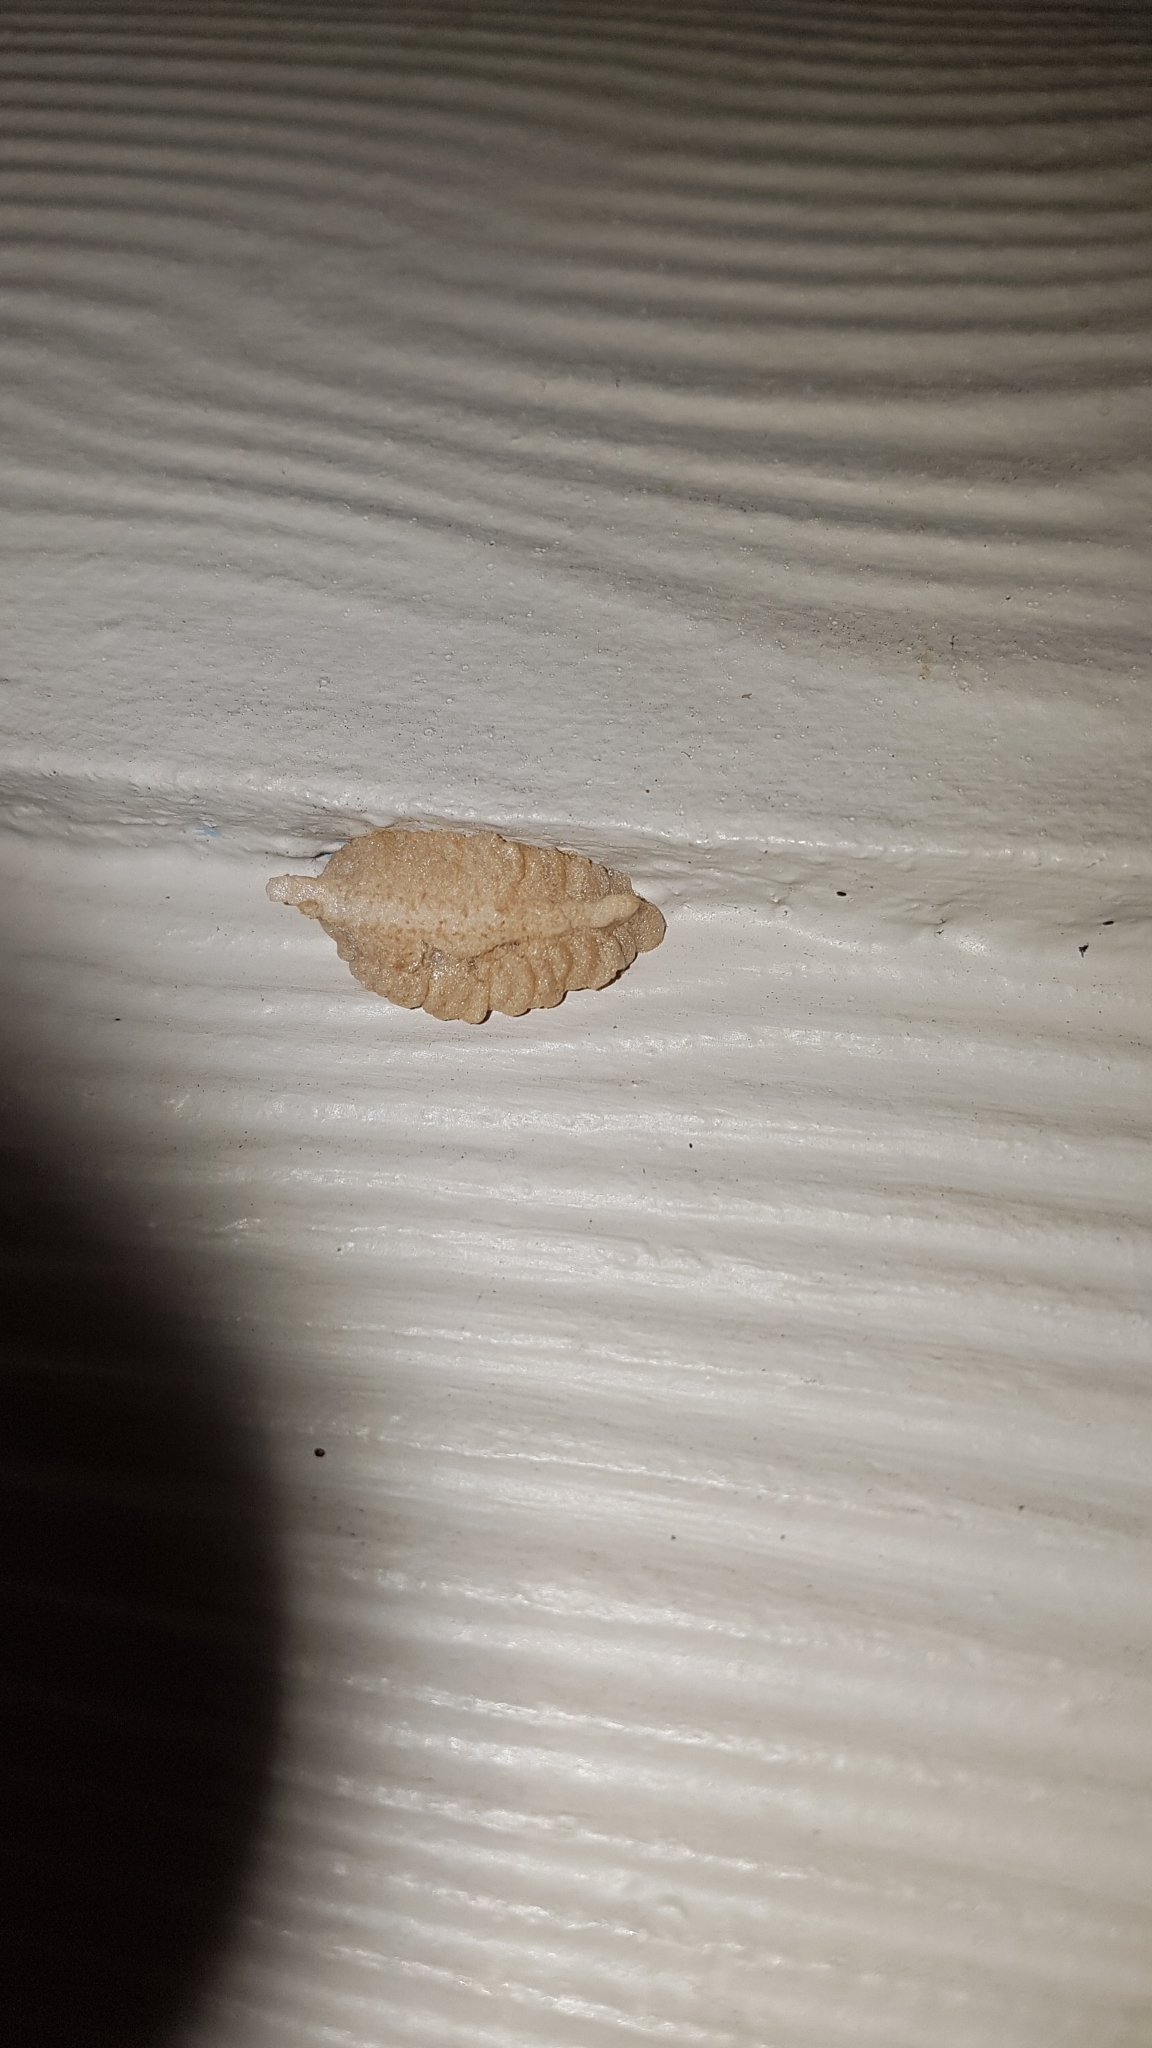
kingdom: Animalia
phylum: Arthropoda
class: Insecta
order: Mantodea
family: Miomantidae
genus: Miomantis
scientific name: Miomantis caffra
